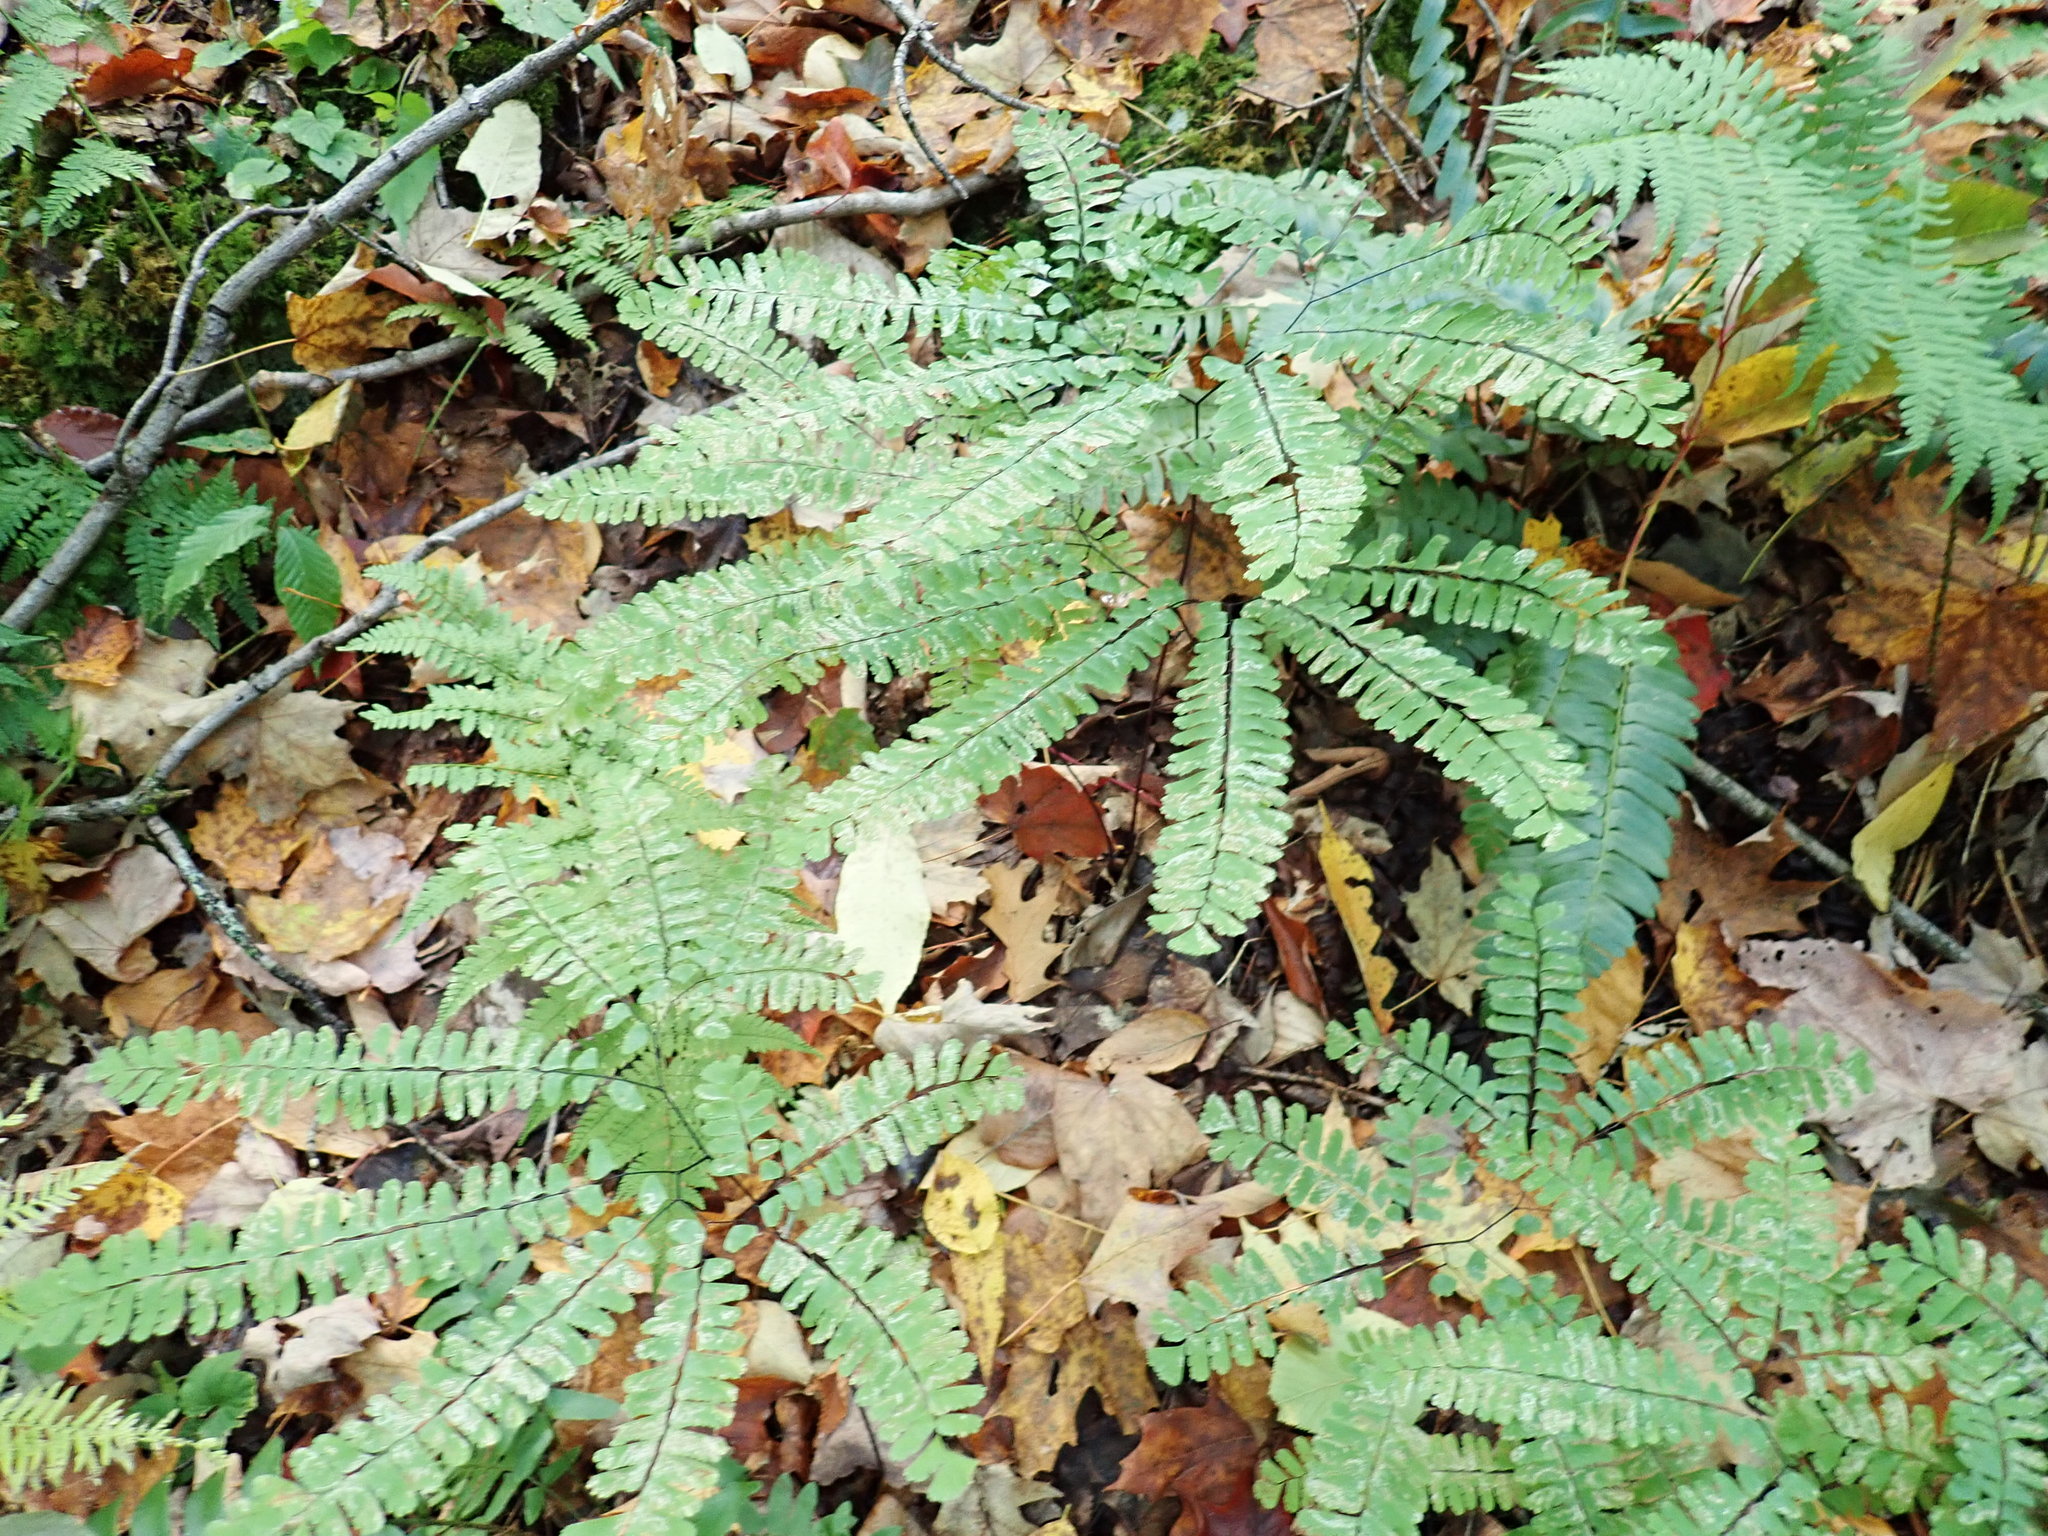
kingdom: Plantae
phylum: Tracheophyta
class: Polypodiopsida
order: Polypodiales
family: Pteridaceae
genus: Adiantum
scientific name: Adiantum pedatum
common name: Five-finger fern
